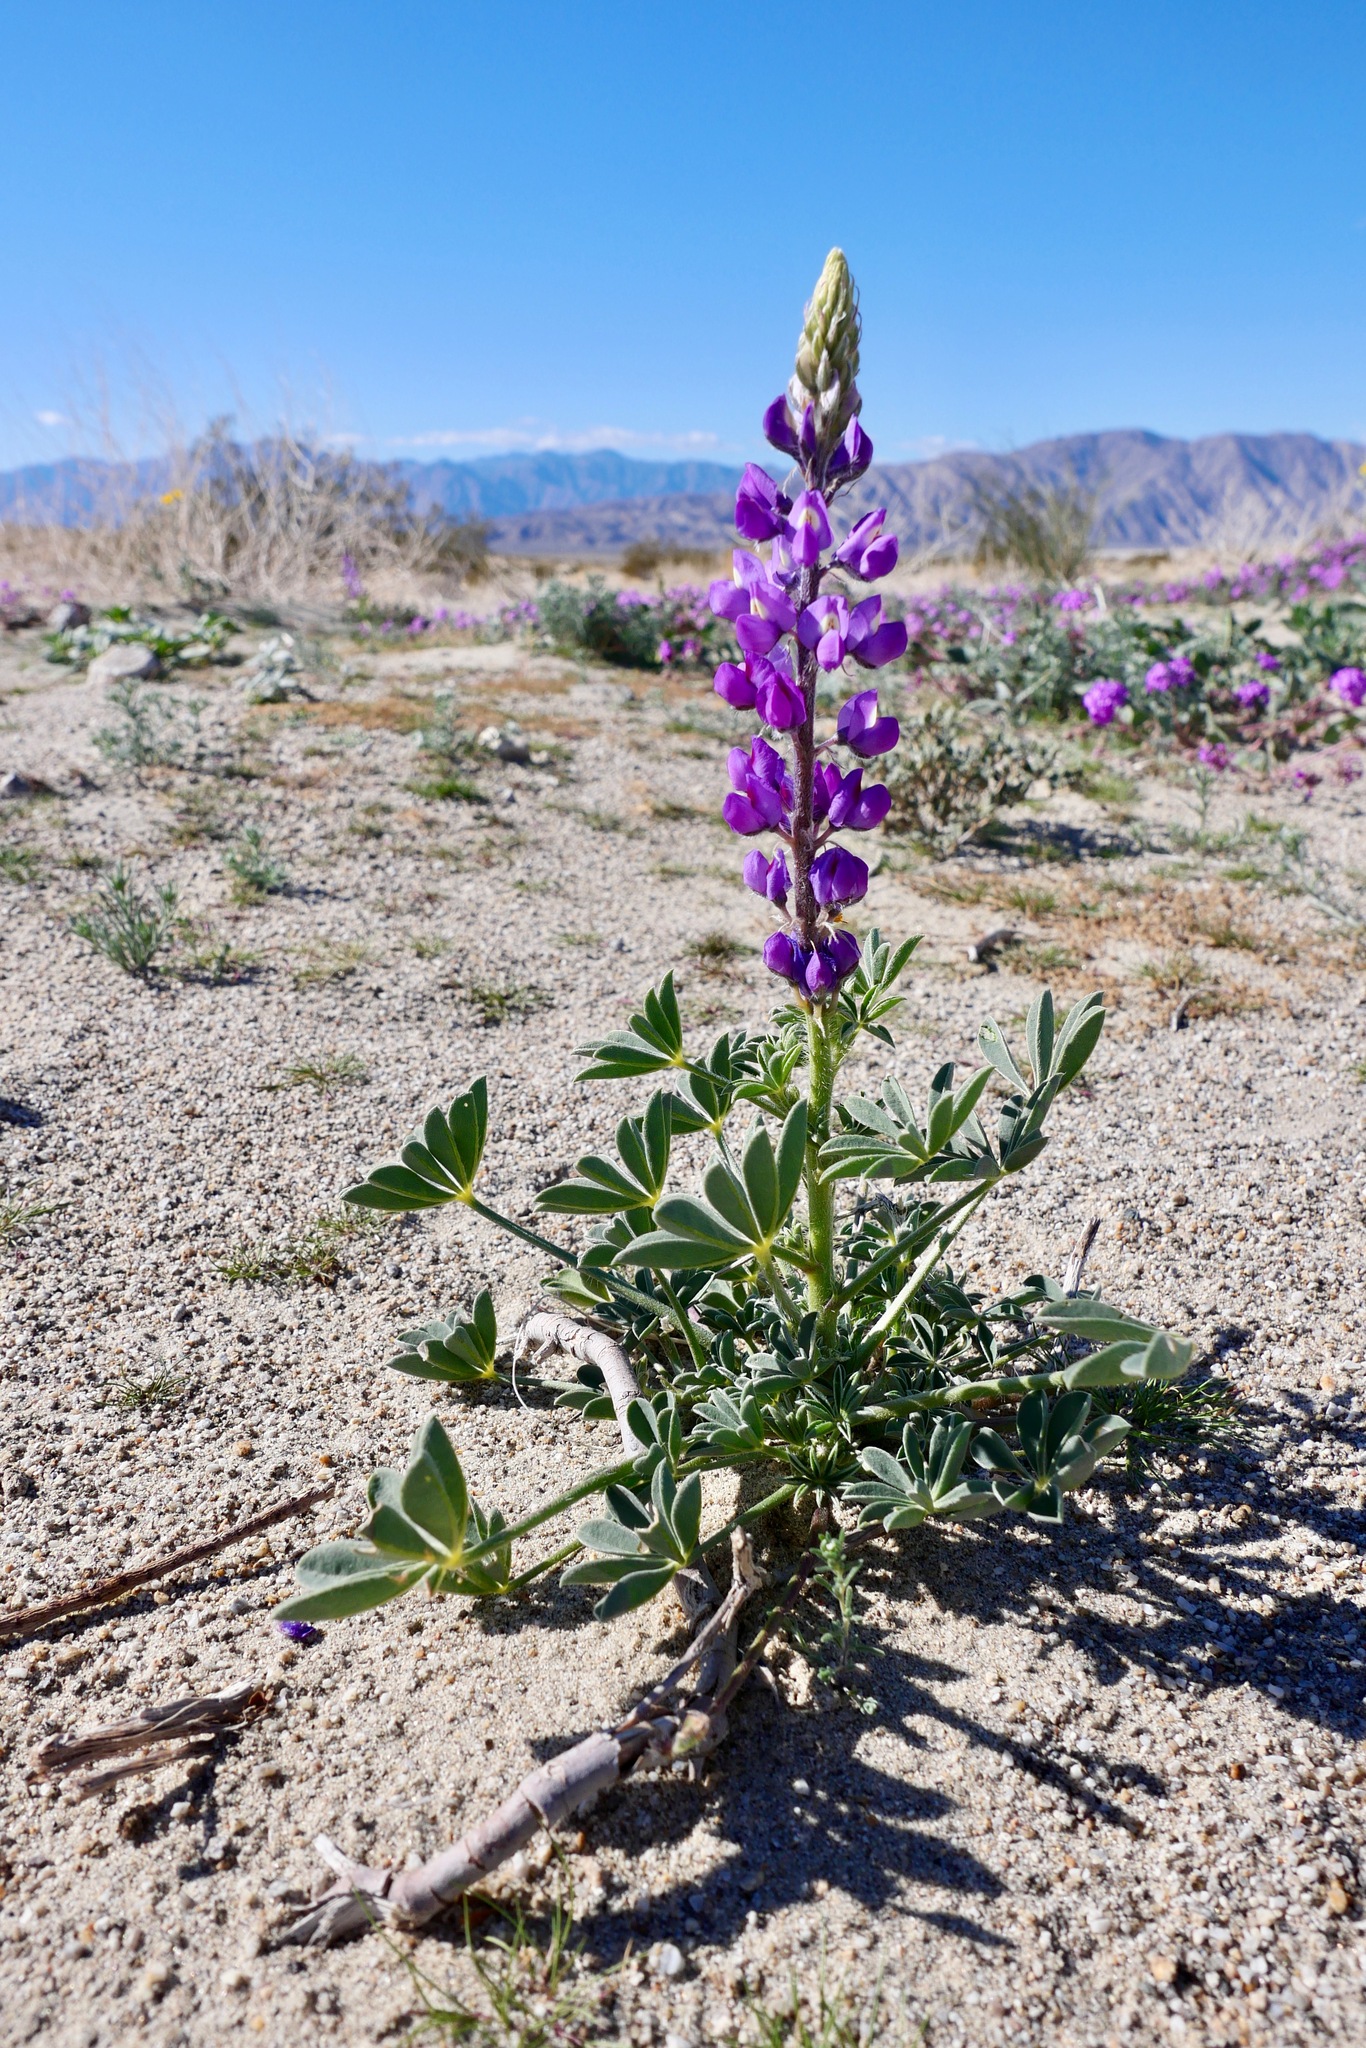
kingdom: Plantae
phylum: Tracheophyta
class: Magnoliopsida
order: Fabales
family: Fabaceae
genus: Lupinus
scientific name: Lupinus arizonicus
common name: Arizona lupine
